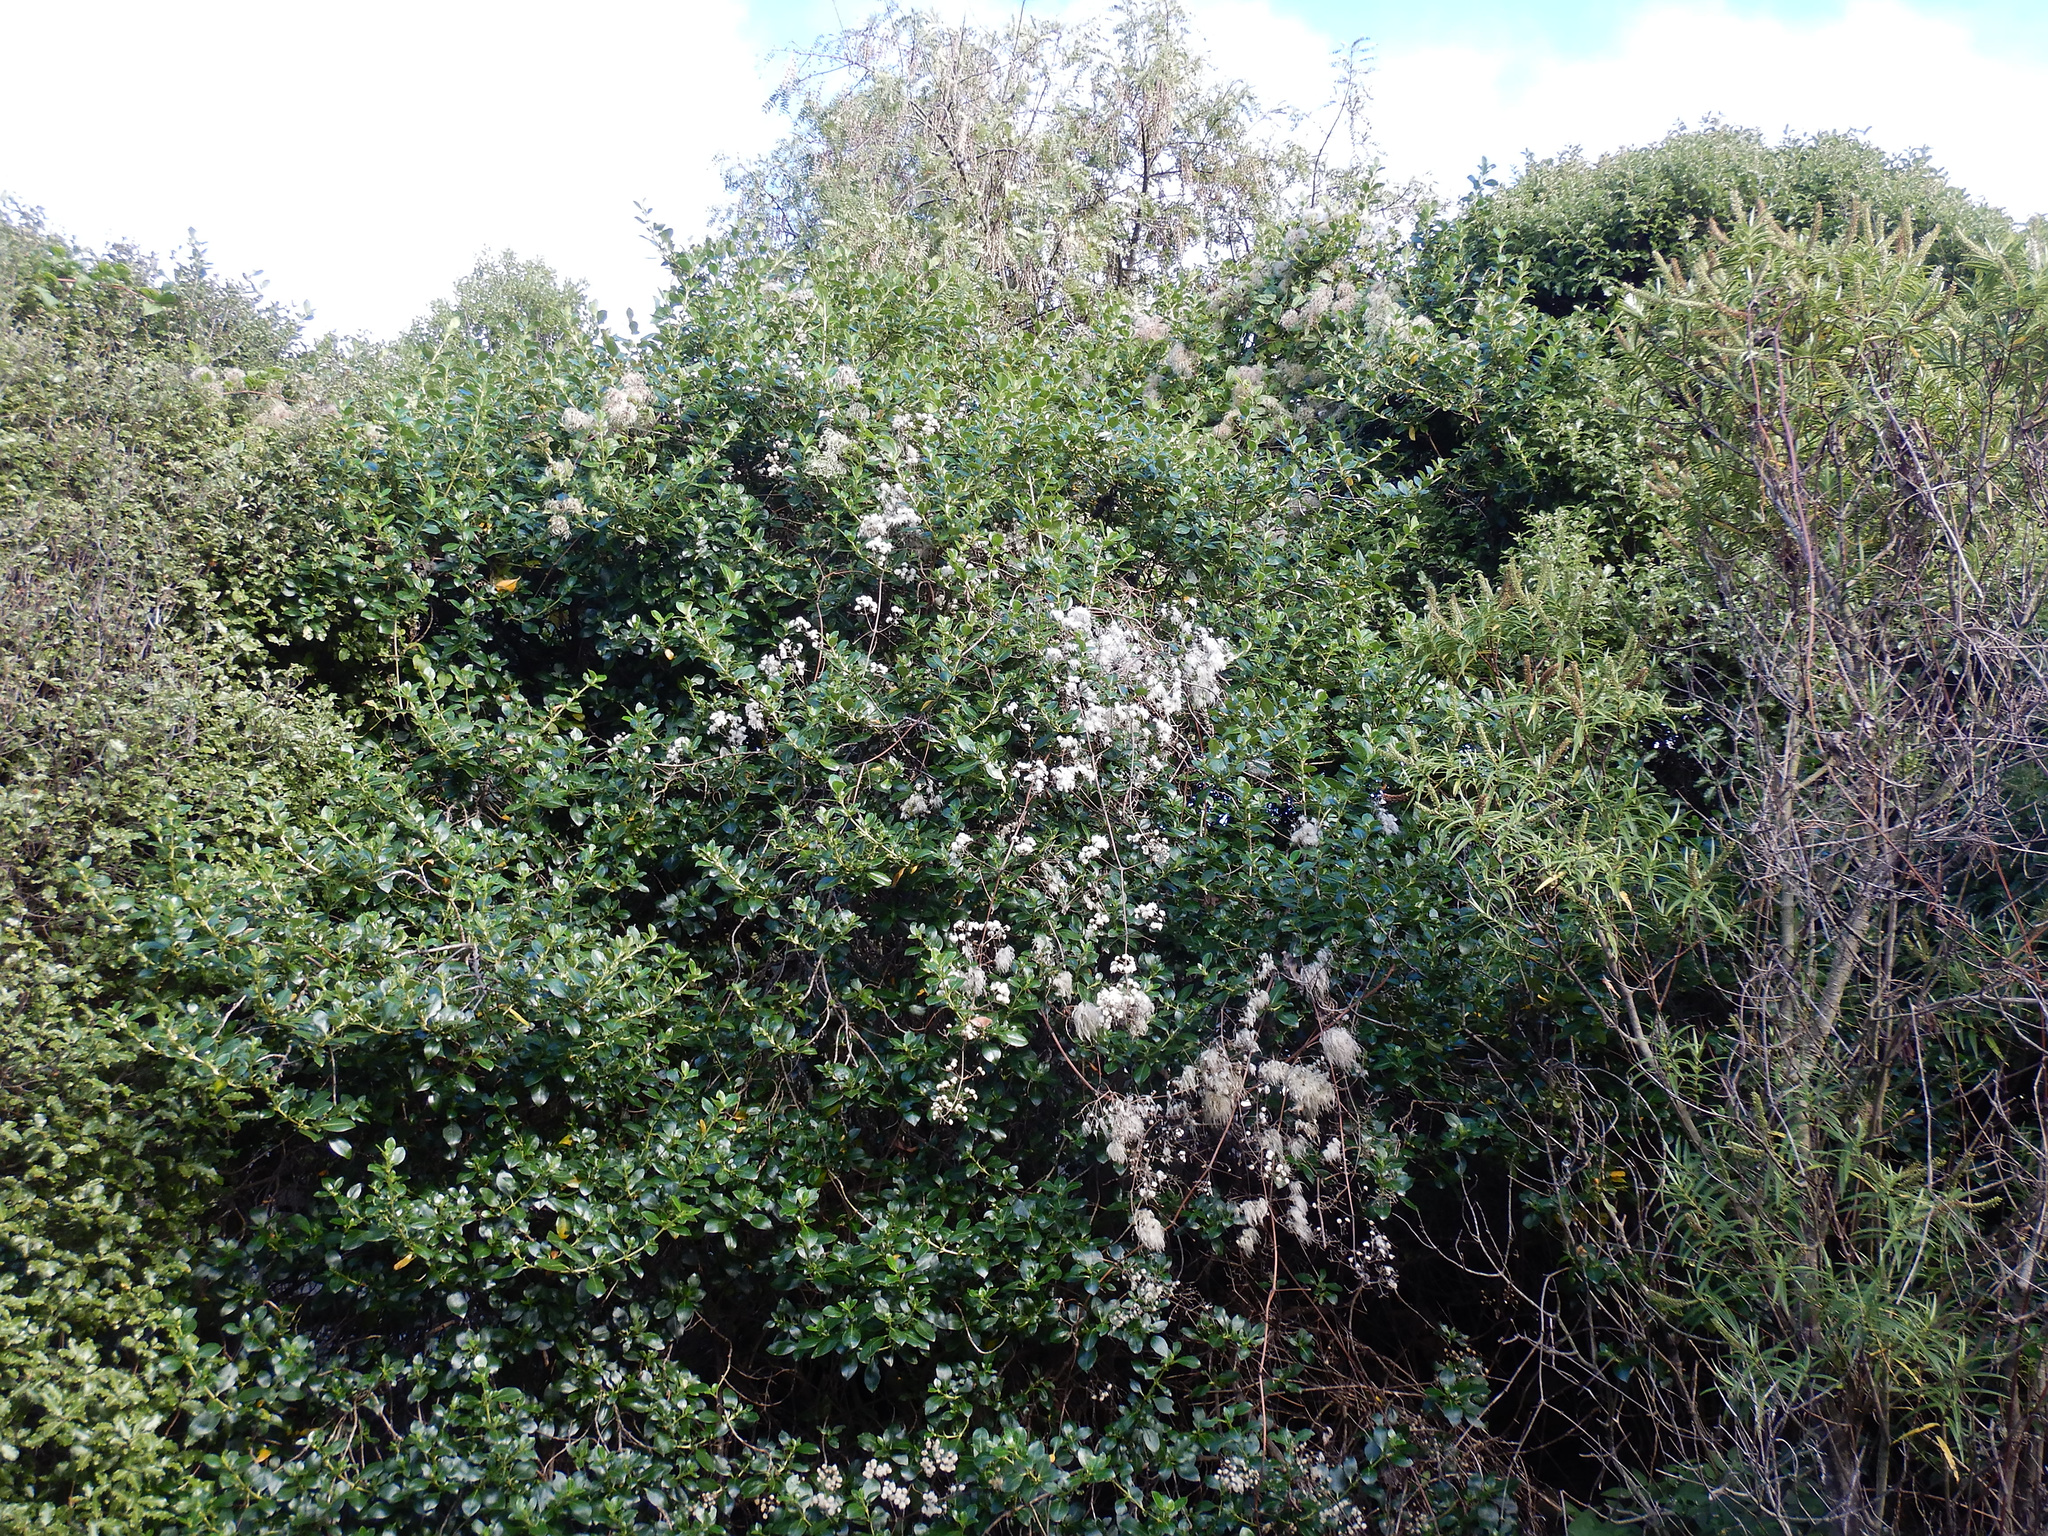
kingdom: Plantae
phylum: Tracheophyta
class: Magnoliopsida
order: Ranunculales
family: Ranunculaceae
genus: Clematis
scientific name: Clematis vitalba
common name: Evergreen clematis
